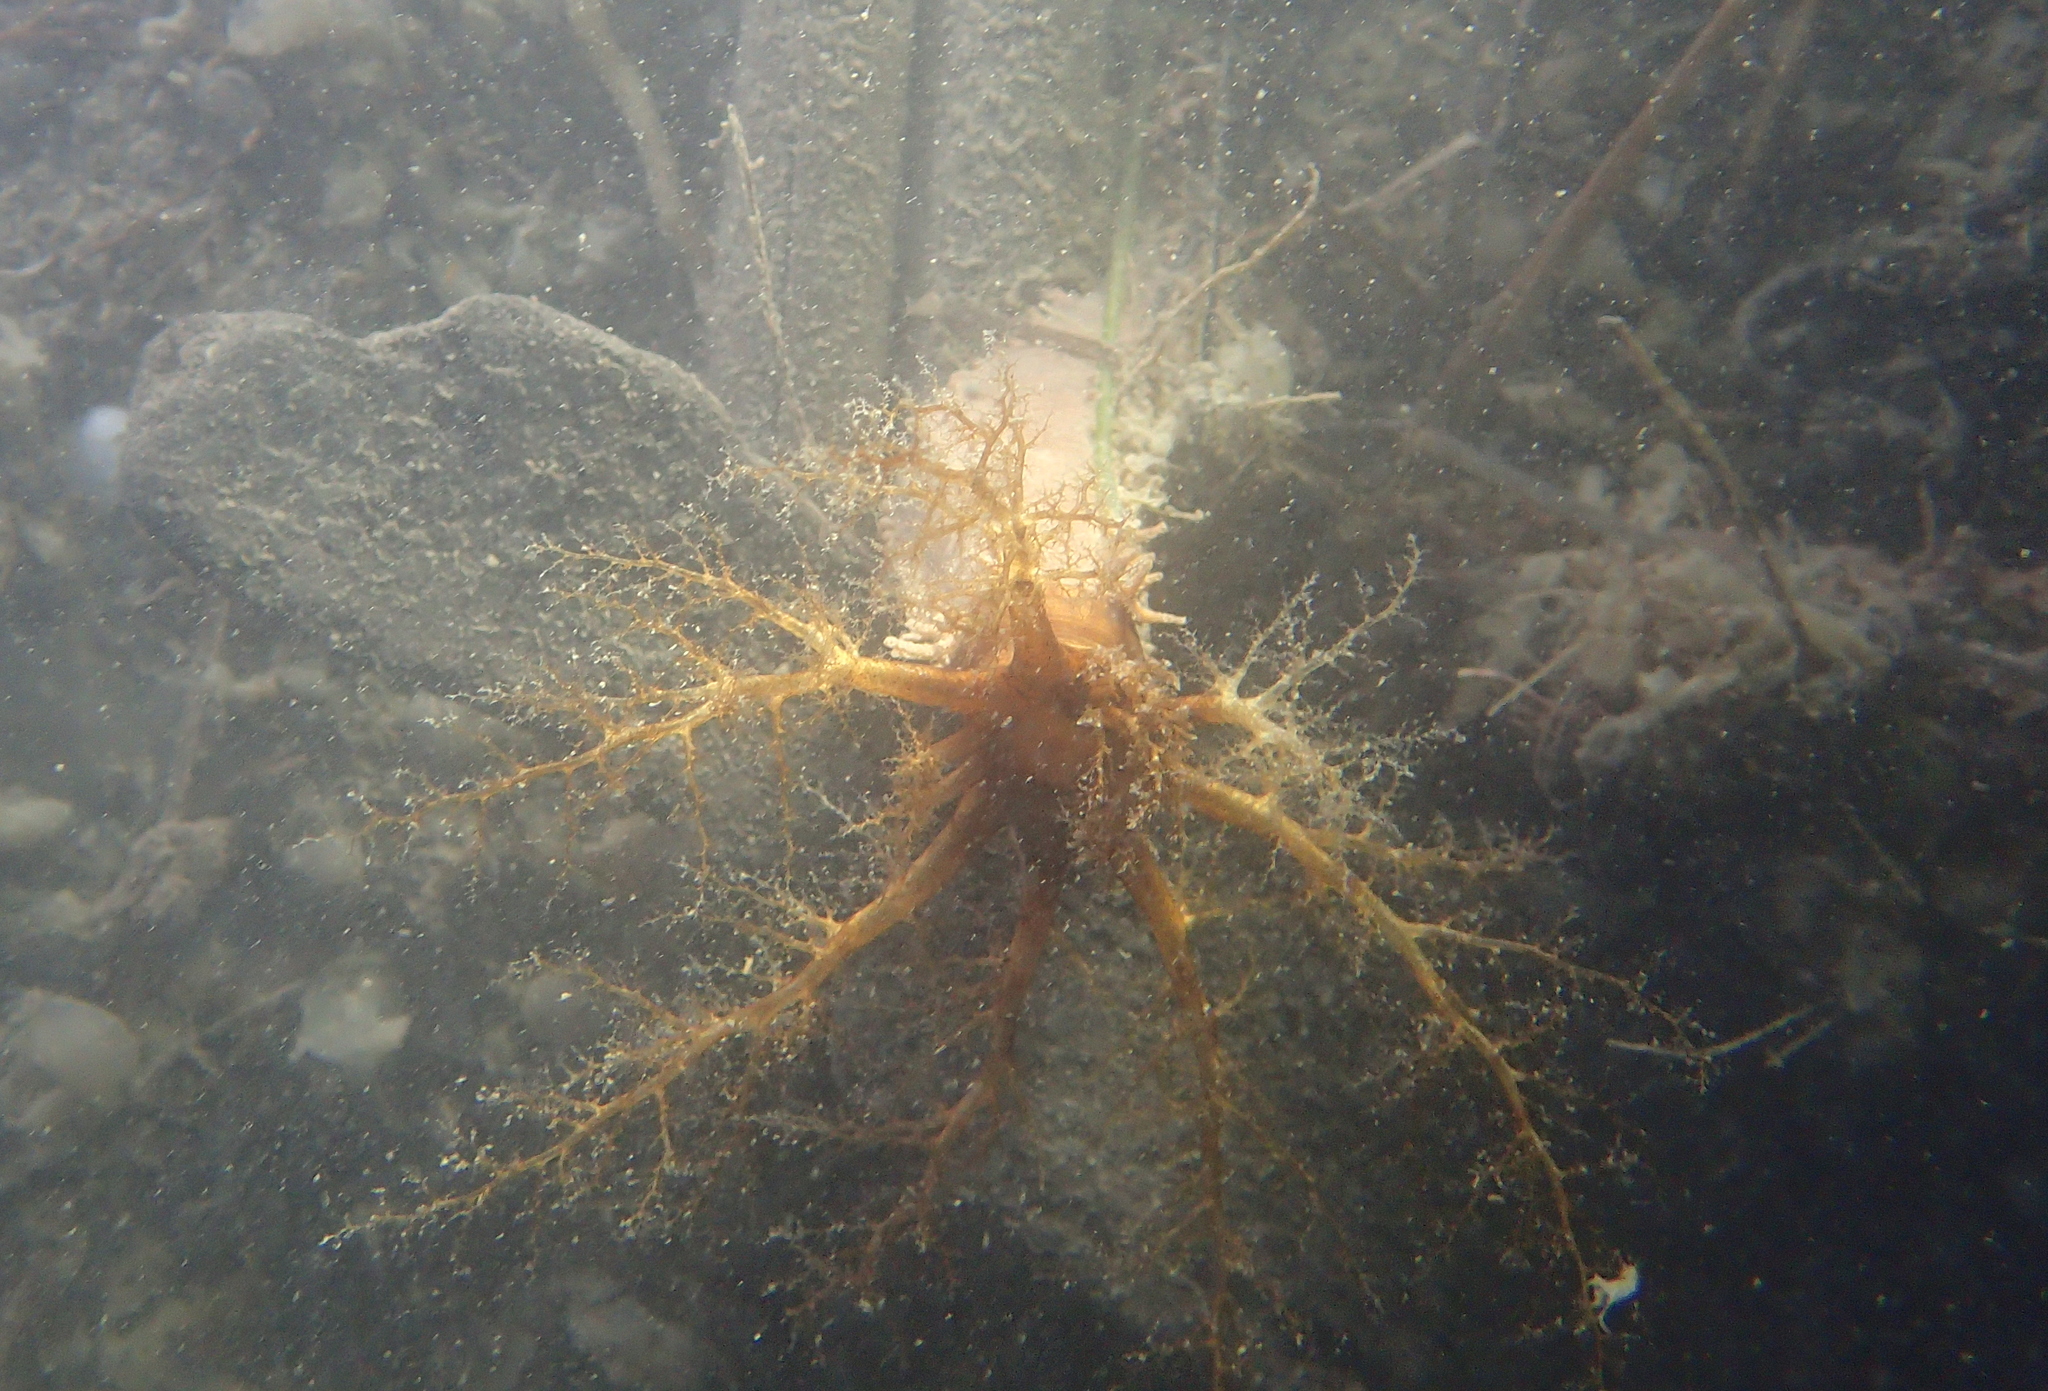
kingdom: Animalia
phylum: Echinodermata
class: Holothuroidea
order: Dendrochirotida
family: Cucumariidae
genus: Ocnus
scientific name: Ocnus planci
